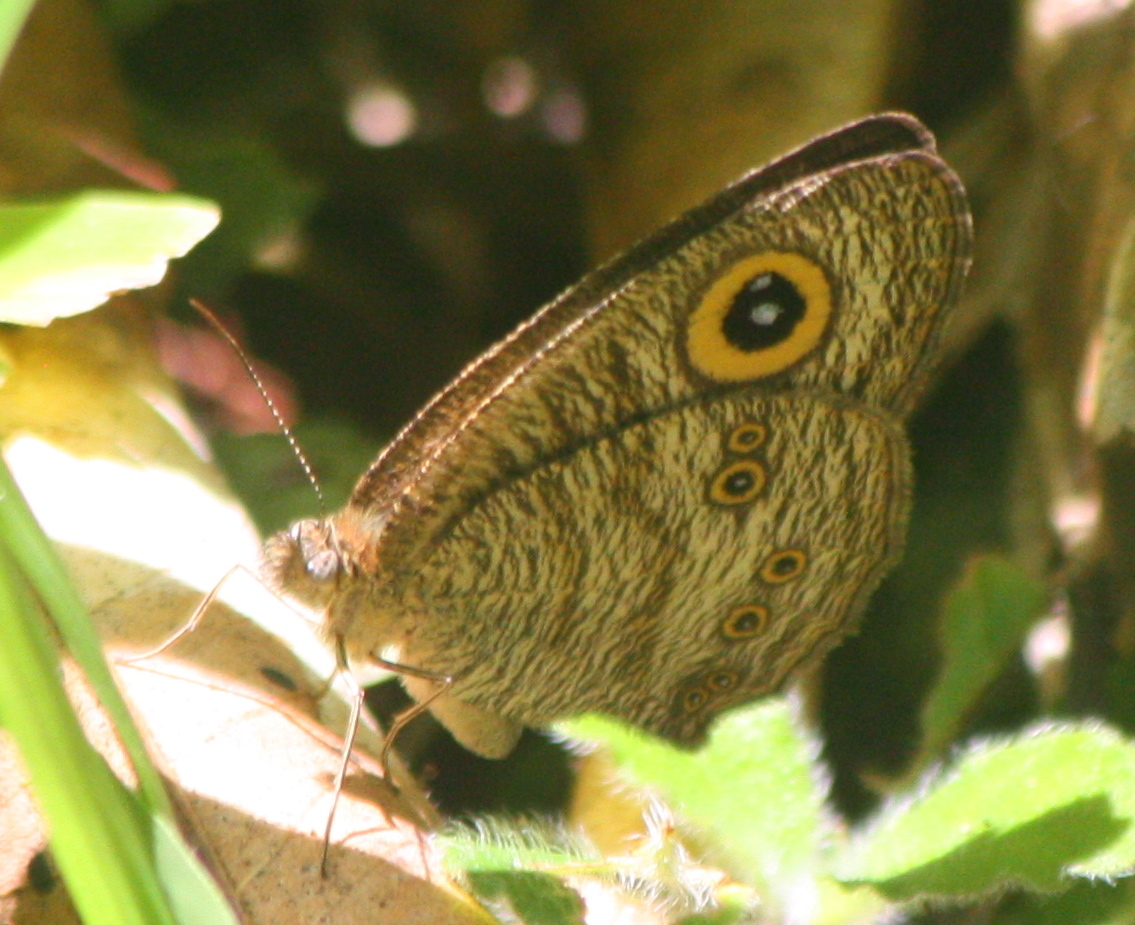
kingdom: Animalia
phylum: Arthropoda
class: Insecta
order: Lepidoptera
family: Nymphalidae
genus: Ypthima
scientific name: Ypthima baldus
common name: Common five-ring
